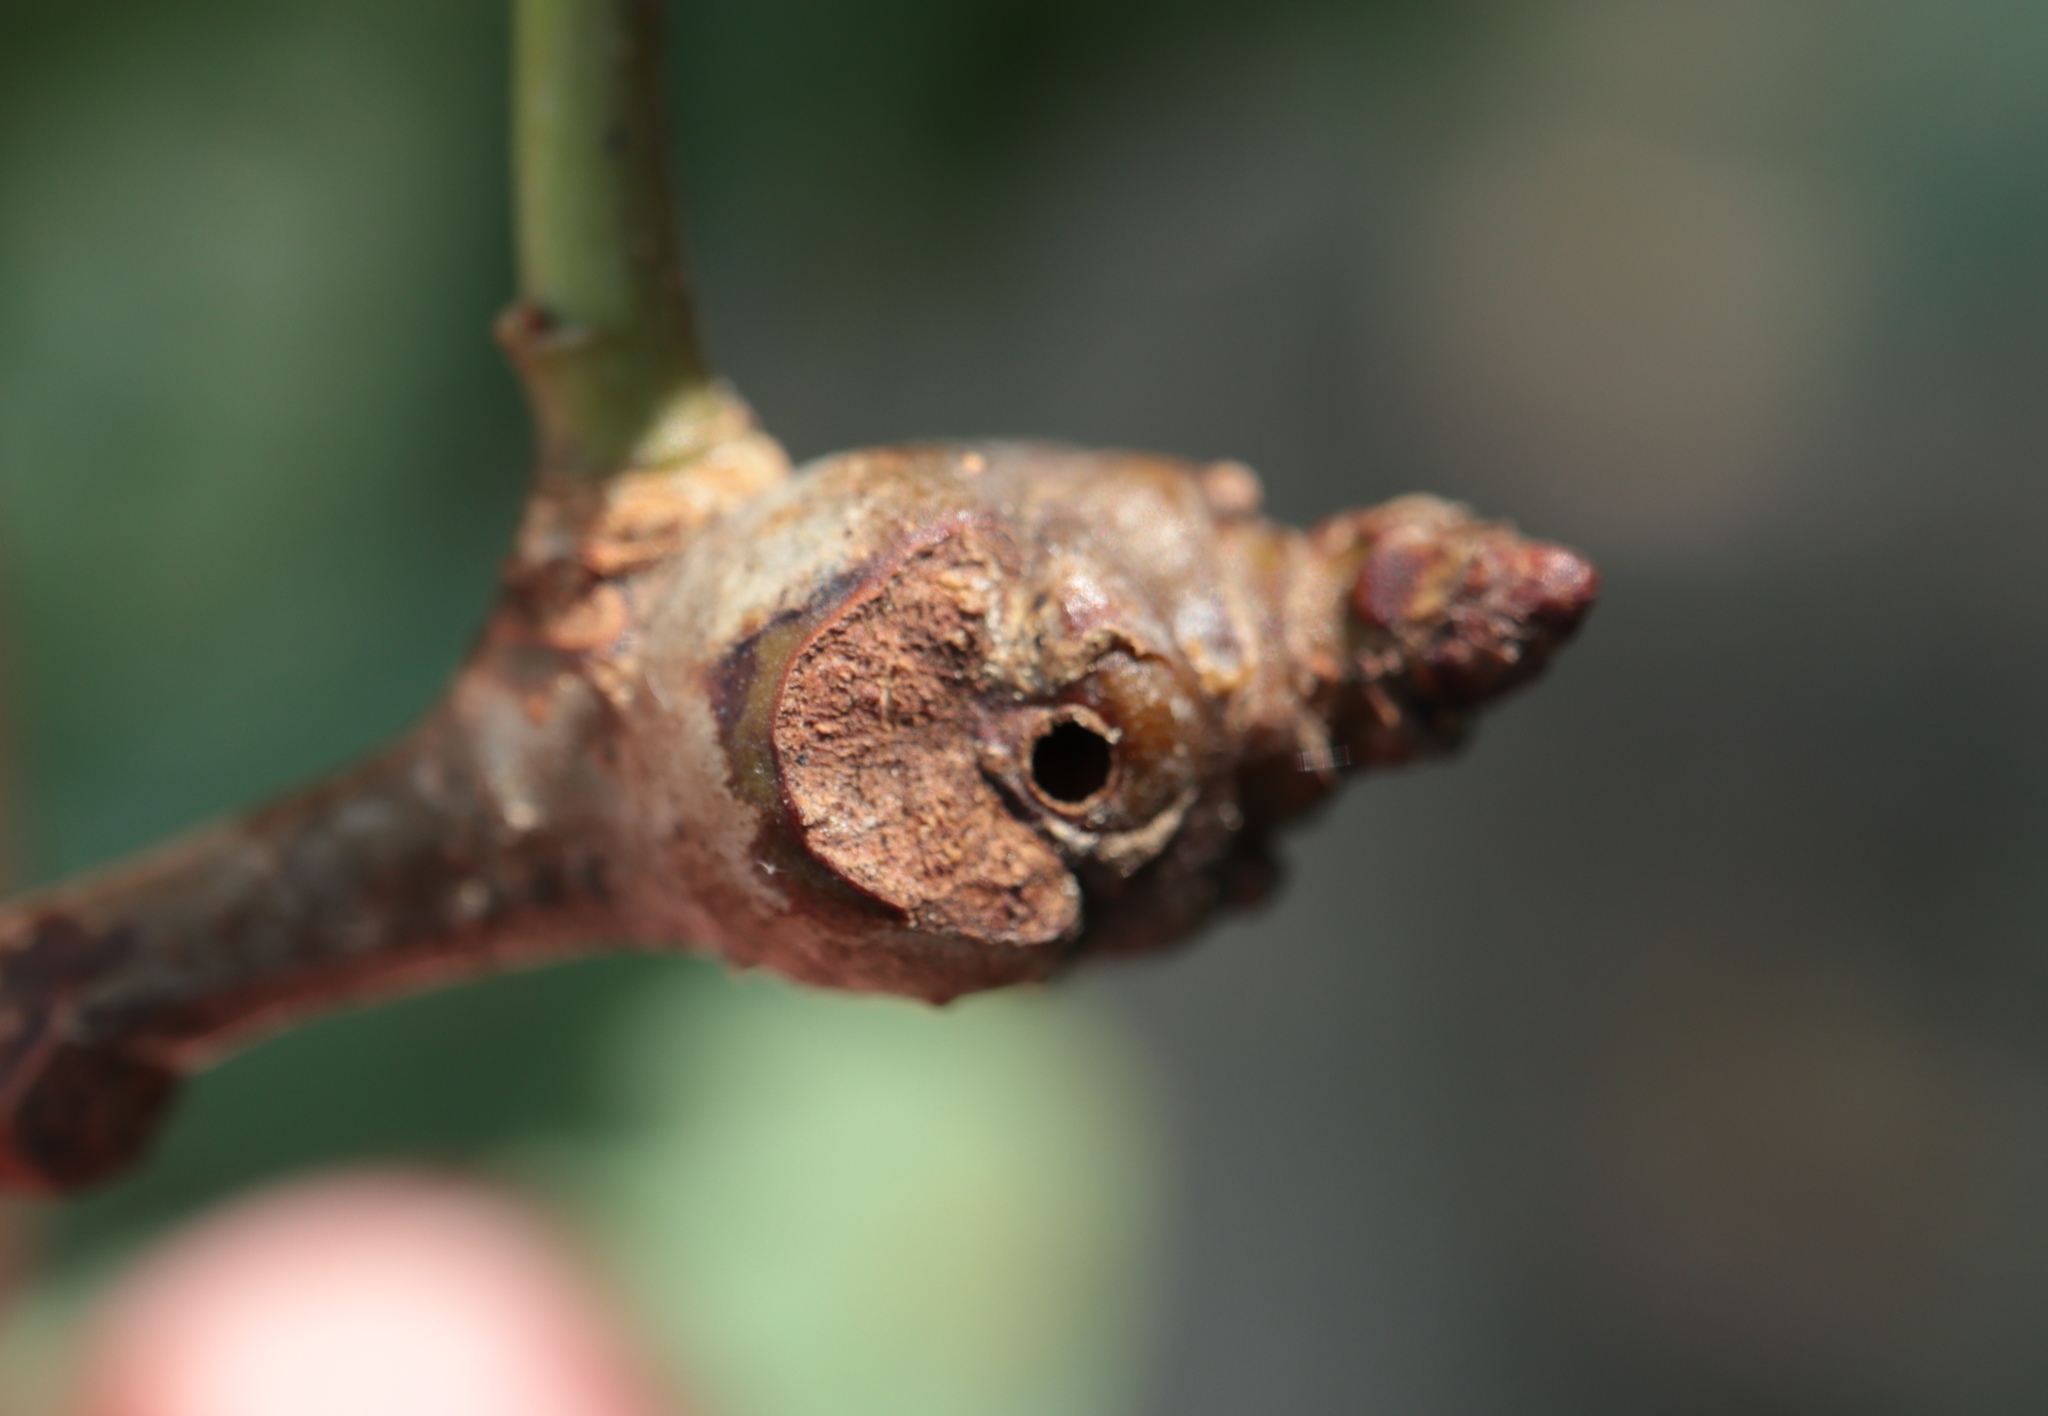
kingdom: Animalia
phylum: Arthropoda
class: Insecta
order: Hymenoptera
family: Cynipidae
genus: Callirhytis
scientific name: Callirhytis clavula
